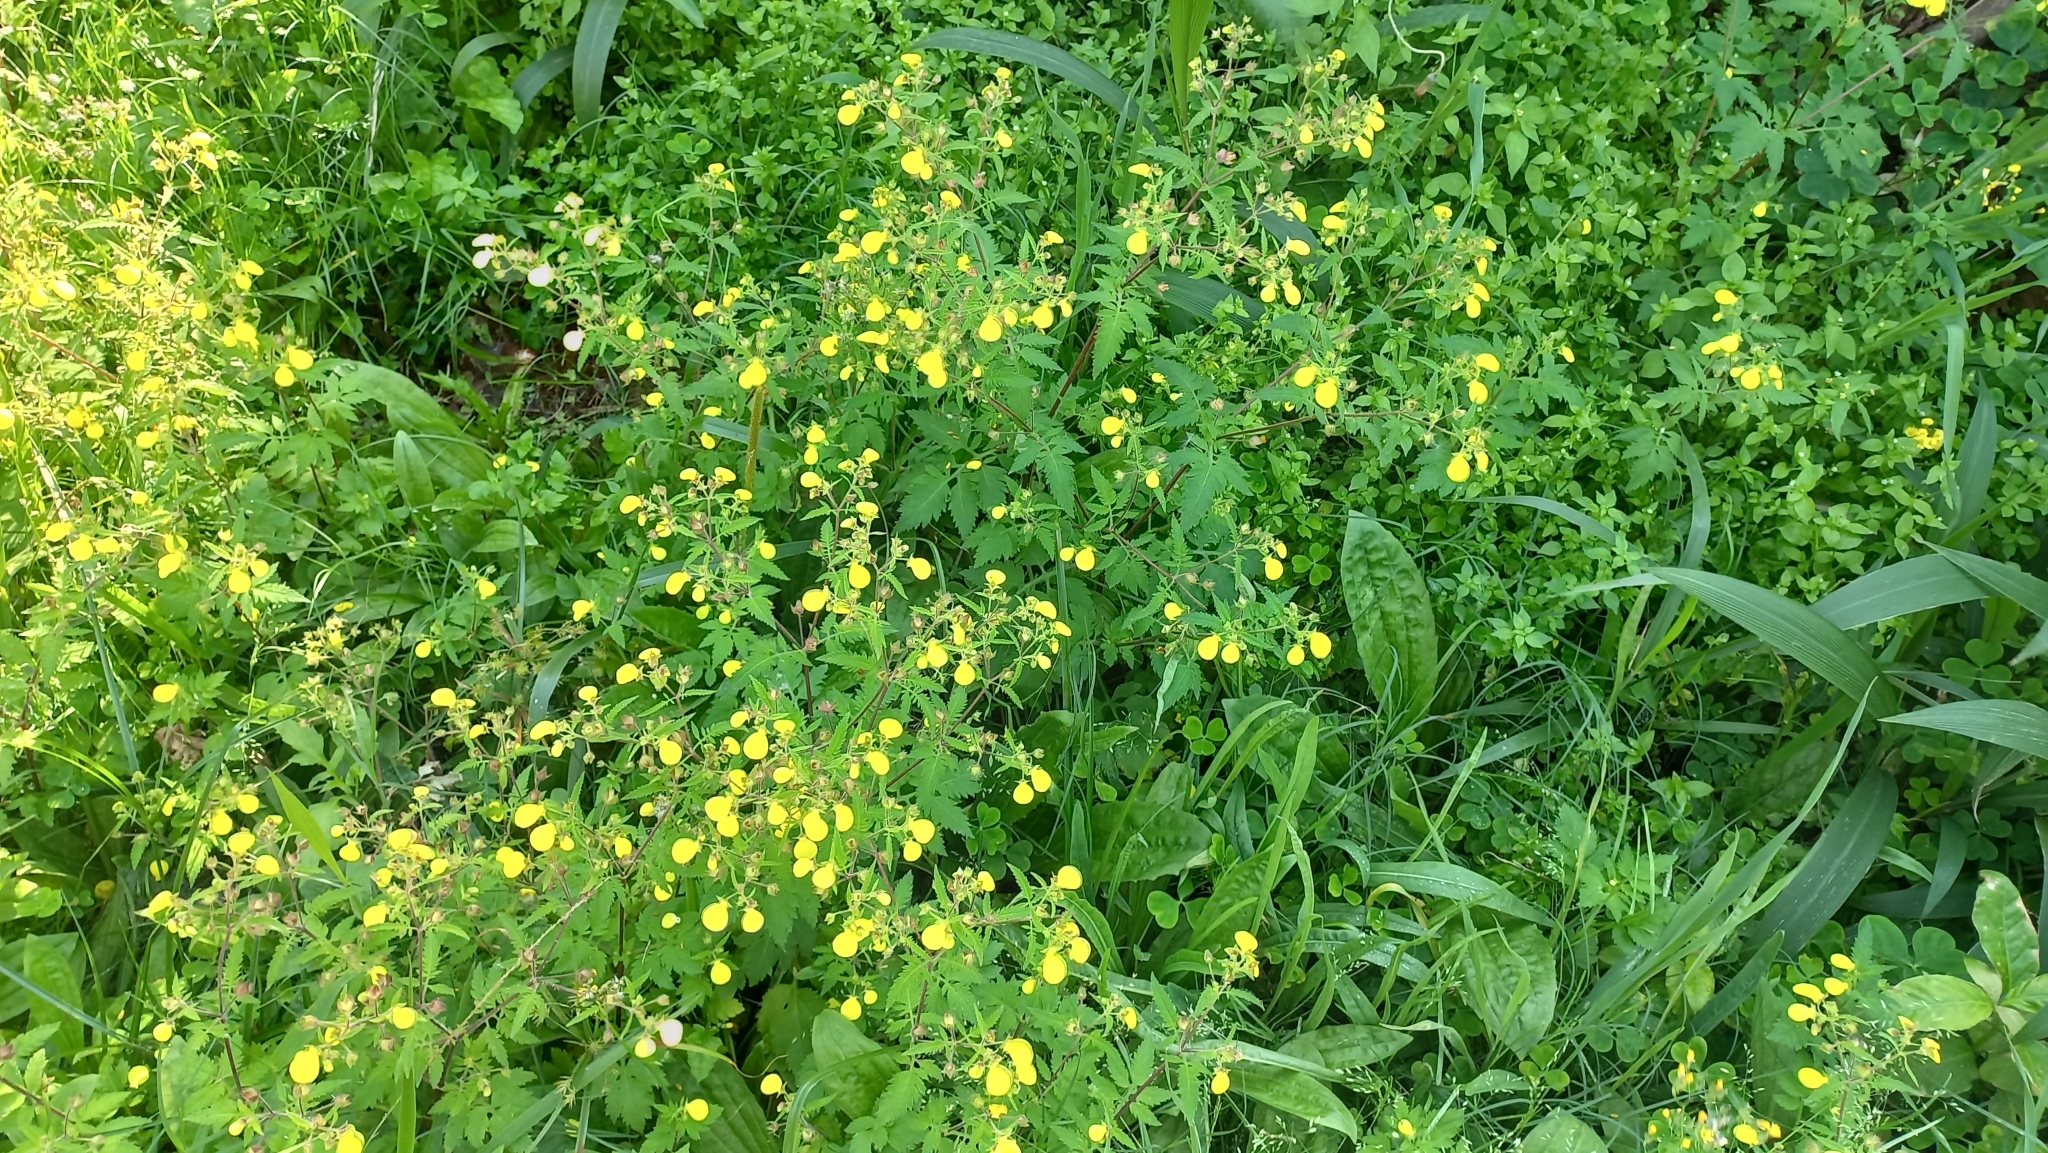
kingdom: Plantae
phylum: Tracheophyta
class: Magnoliopsida
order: Lamiales
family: Calceolariaceae
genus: Calceolaria
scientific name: Calceolaria tripartita
